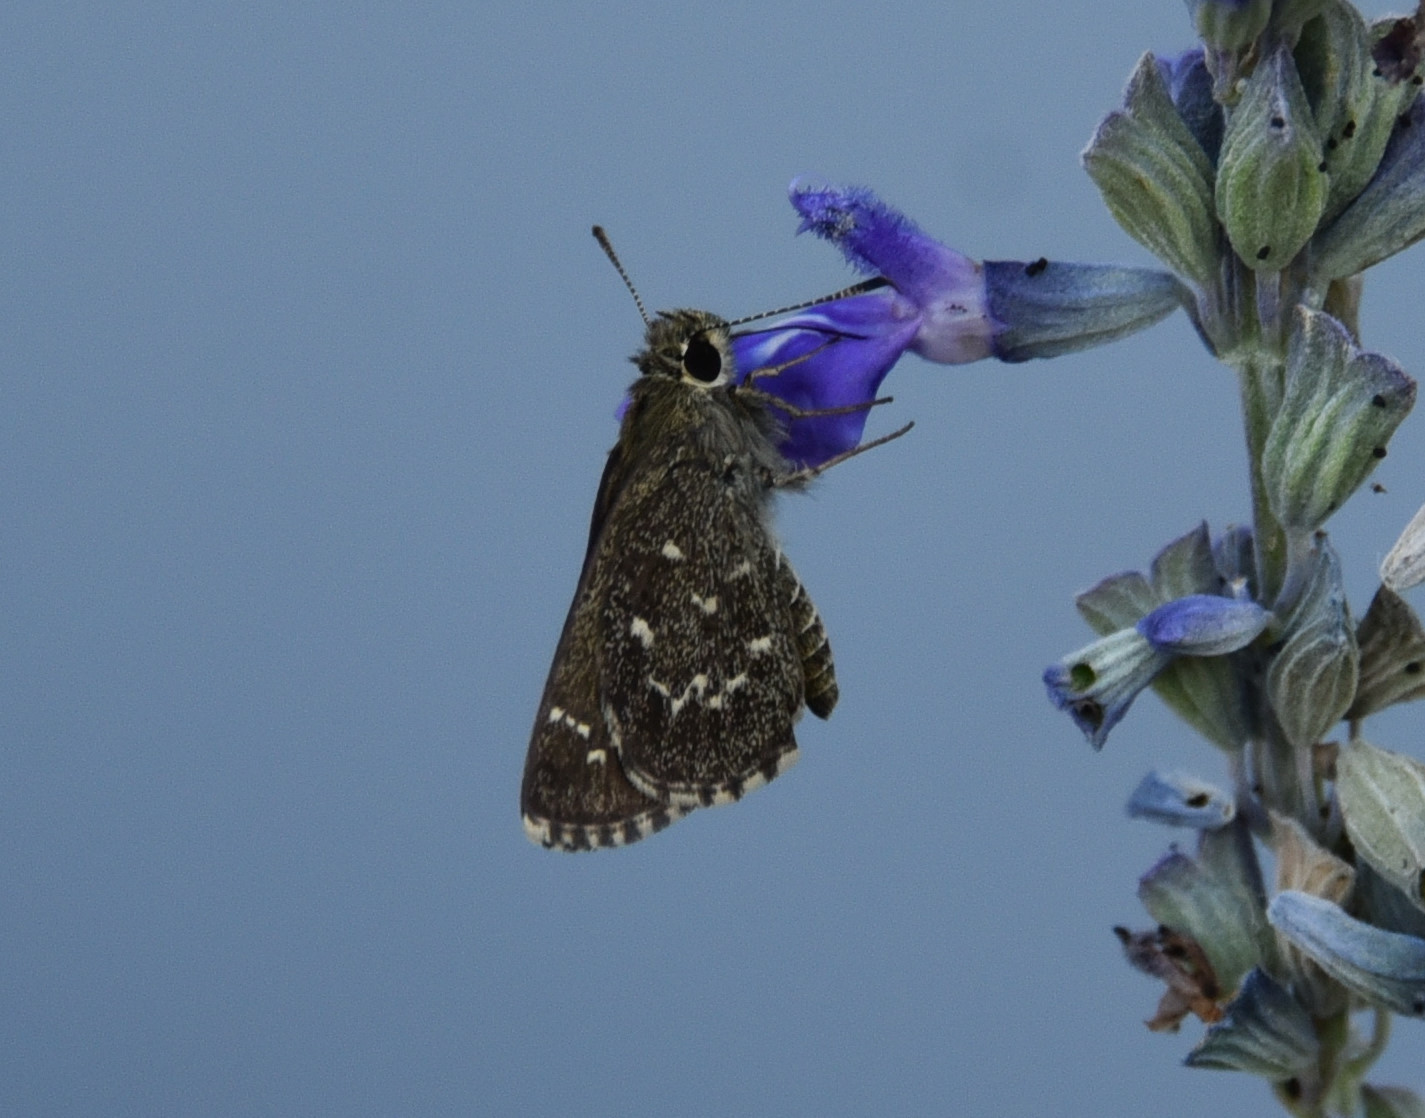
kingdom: Animalia
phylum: Arthropoda
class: Insecta
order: Lepidoptera
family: Hesperiidae
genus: Mastor
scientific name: Mastor celia
